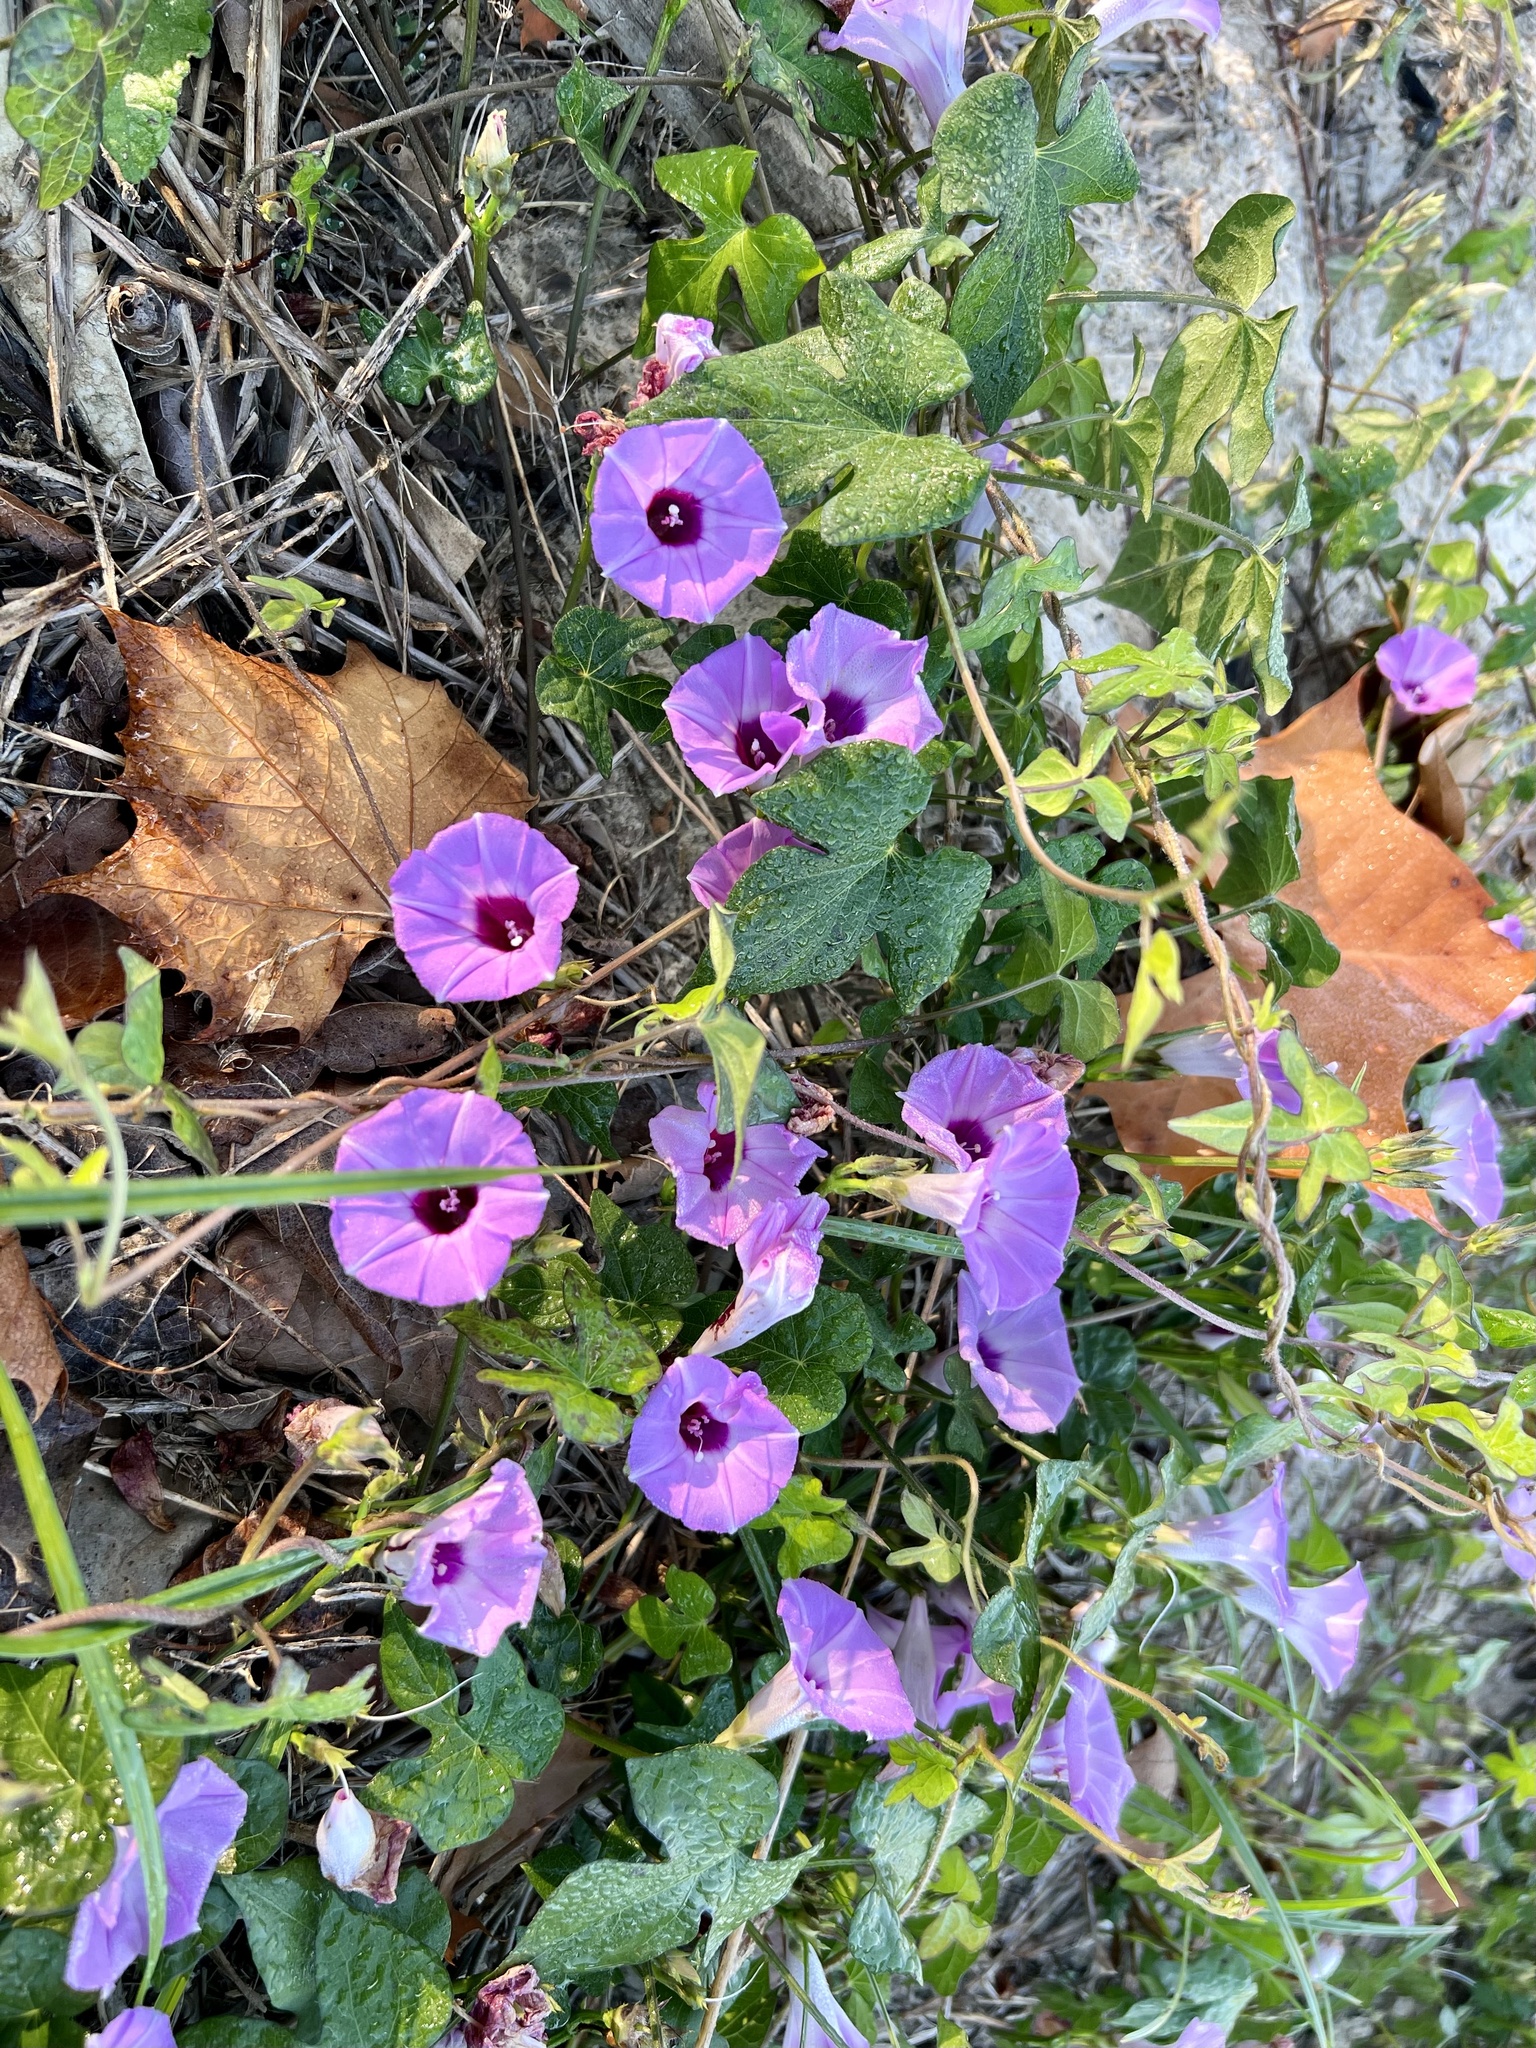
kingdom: Plantae
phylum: Tracheophyta
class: Magnoliopsida
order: Solanales
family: Convolvulaceae
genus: Ipomoea
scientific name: Ipomoea cordatotriloba
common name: Cotton morning glory
